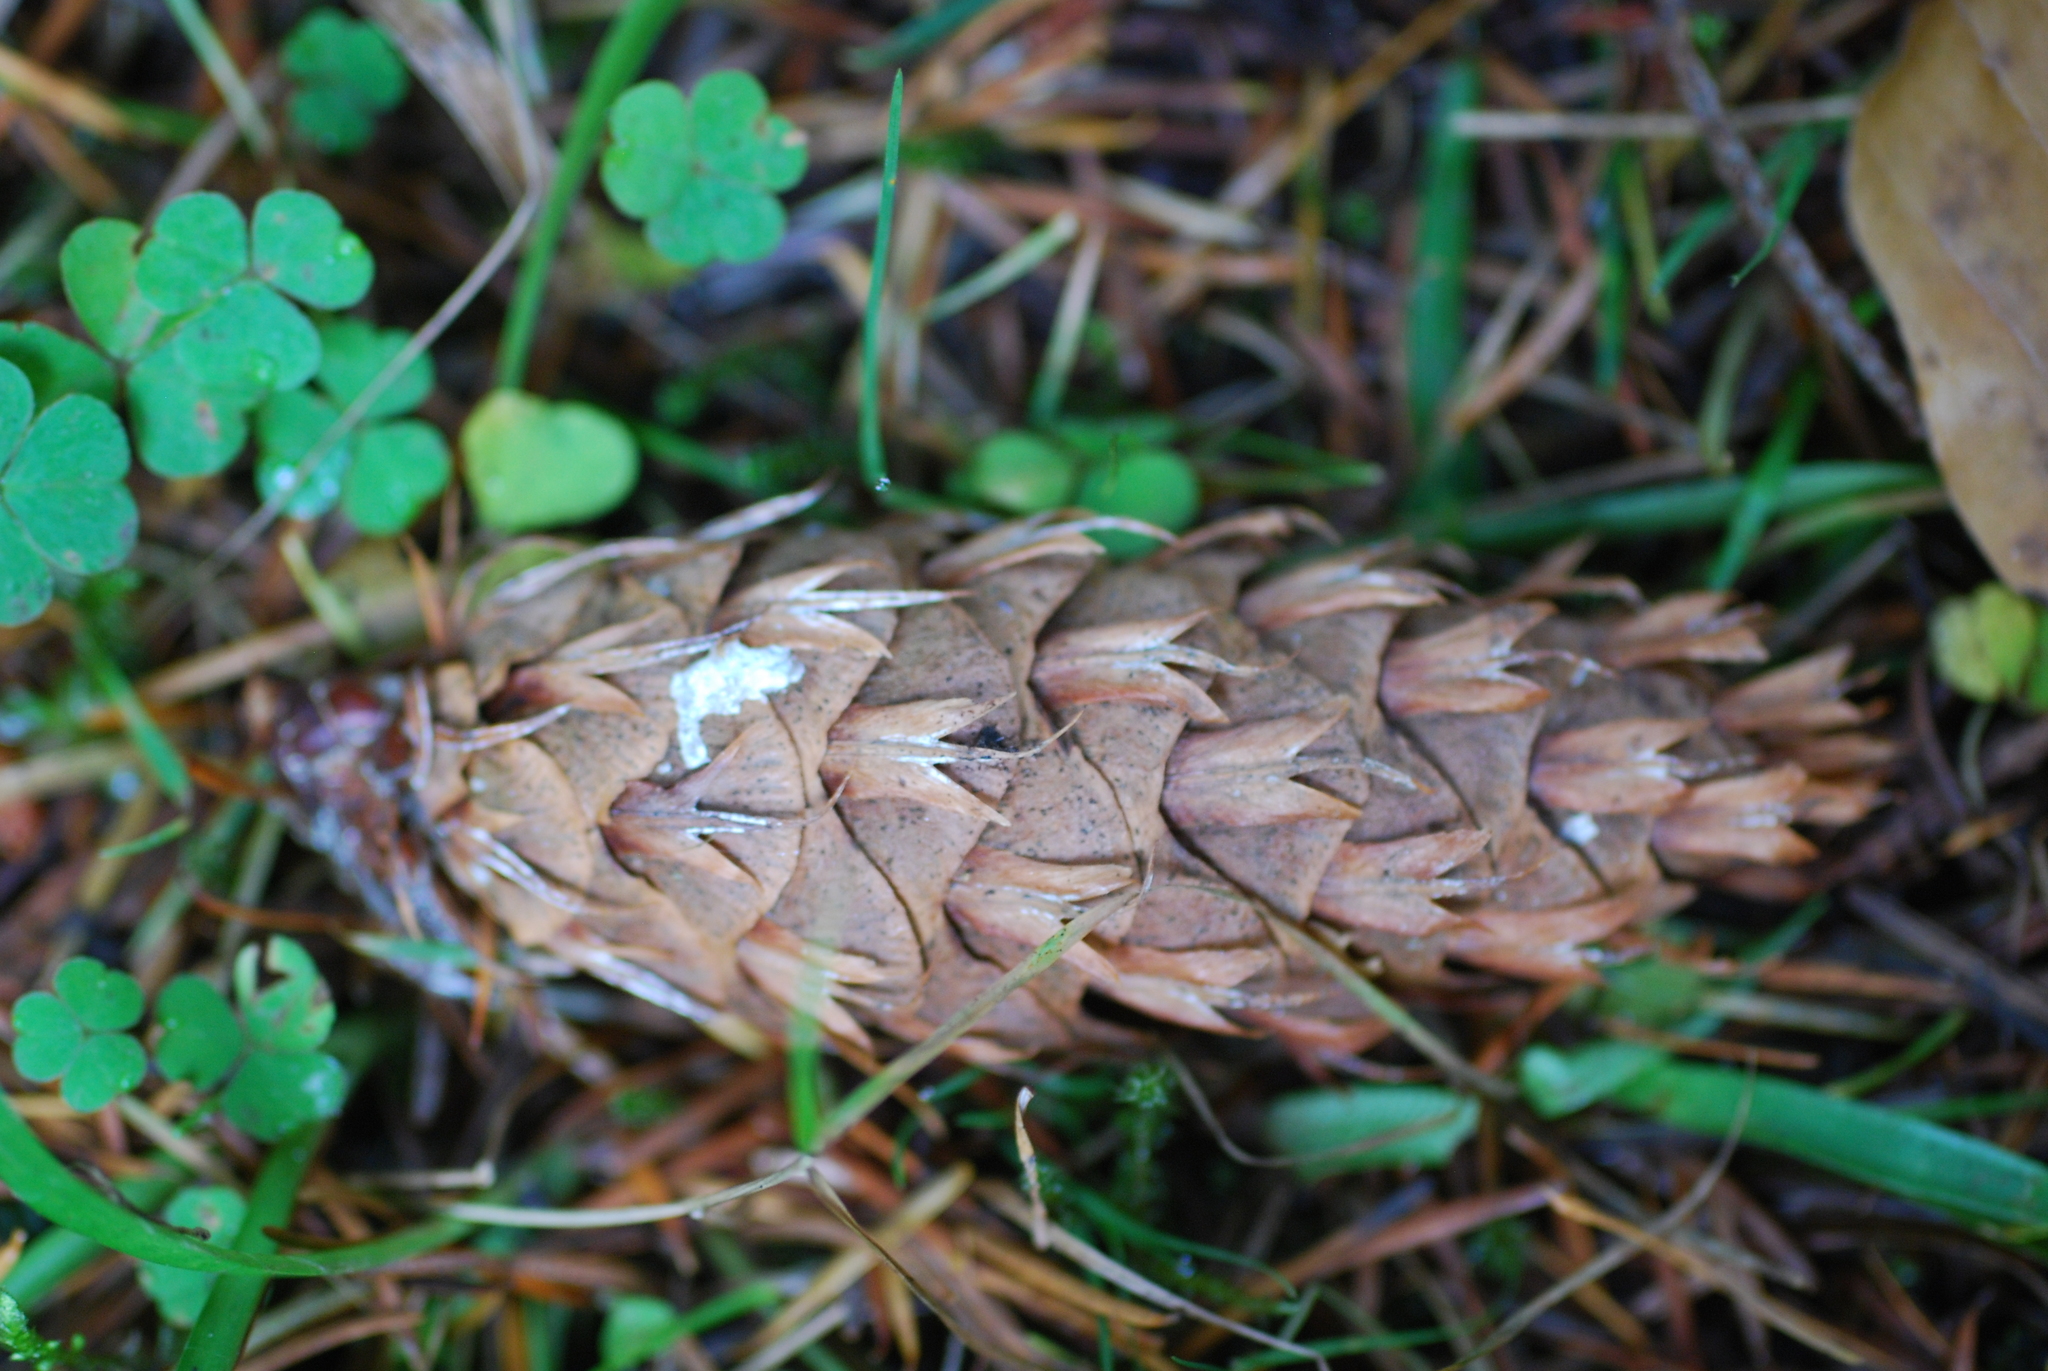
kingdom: Plantae
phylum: Tracheophyta
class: Pinopsida
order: Pinales
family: Pinaceae
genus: Pseudotsuga
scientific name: Pseudotsuga menziesii
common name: Douglas fir
